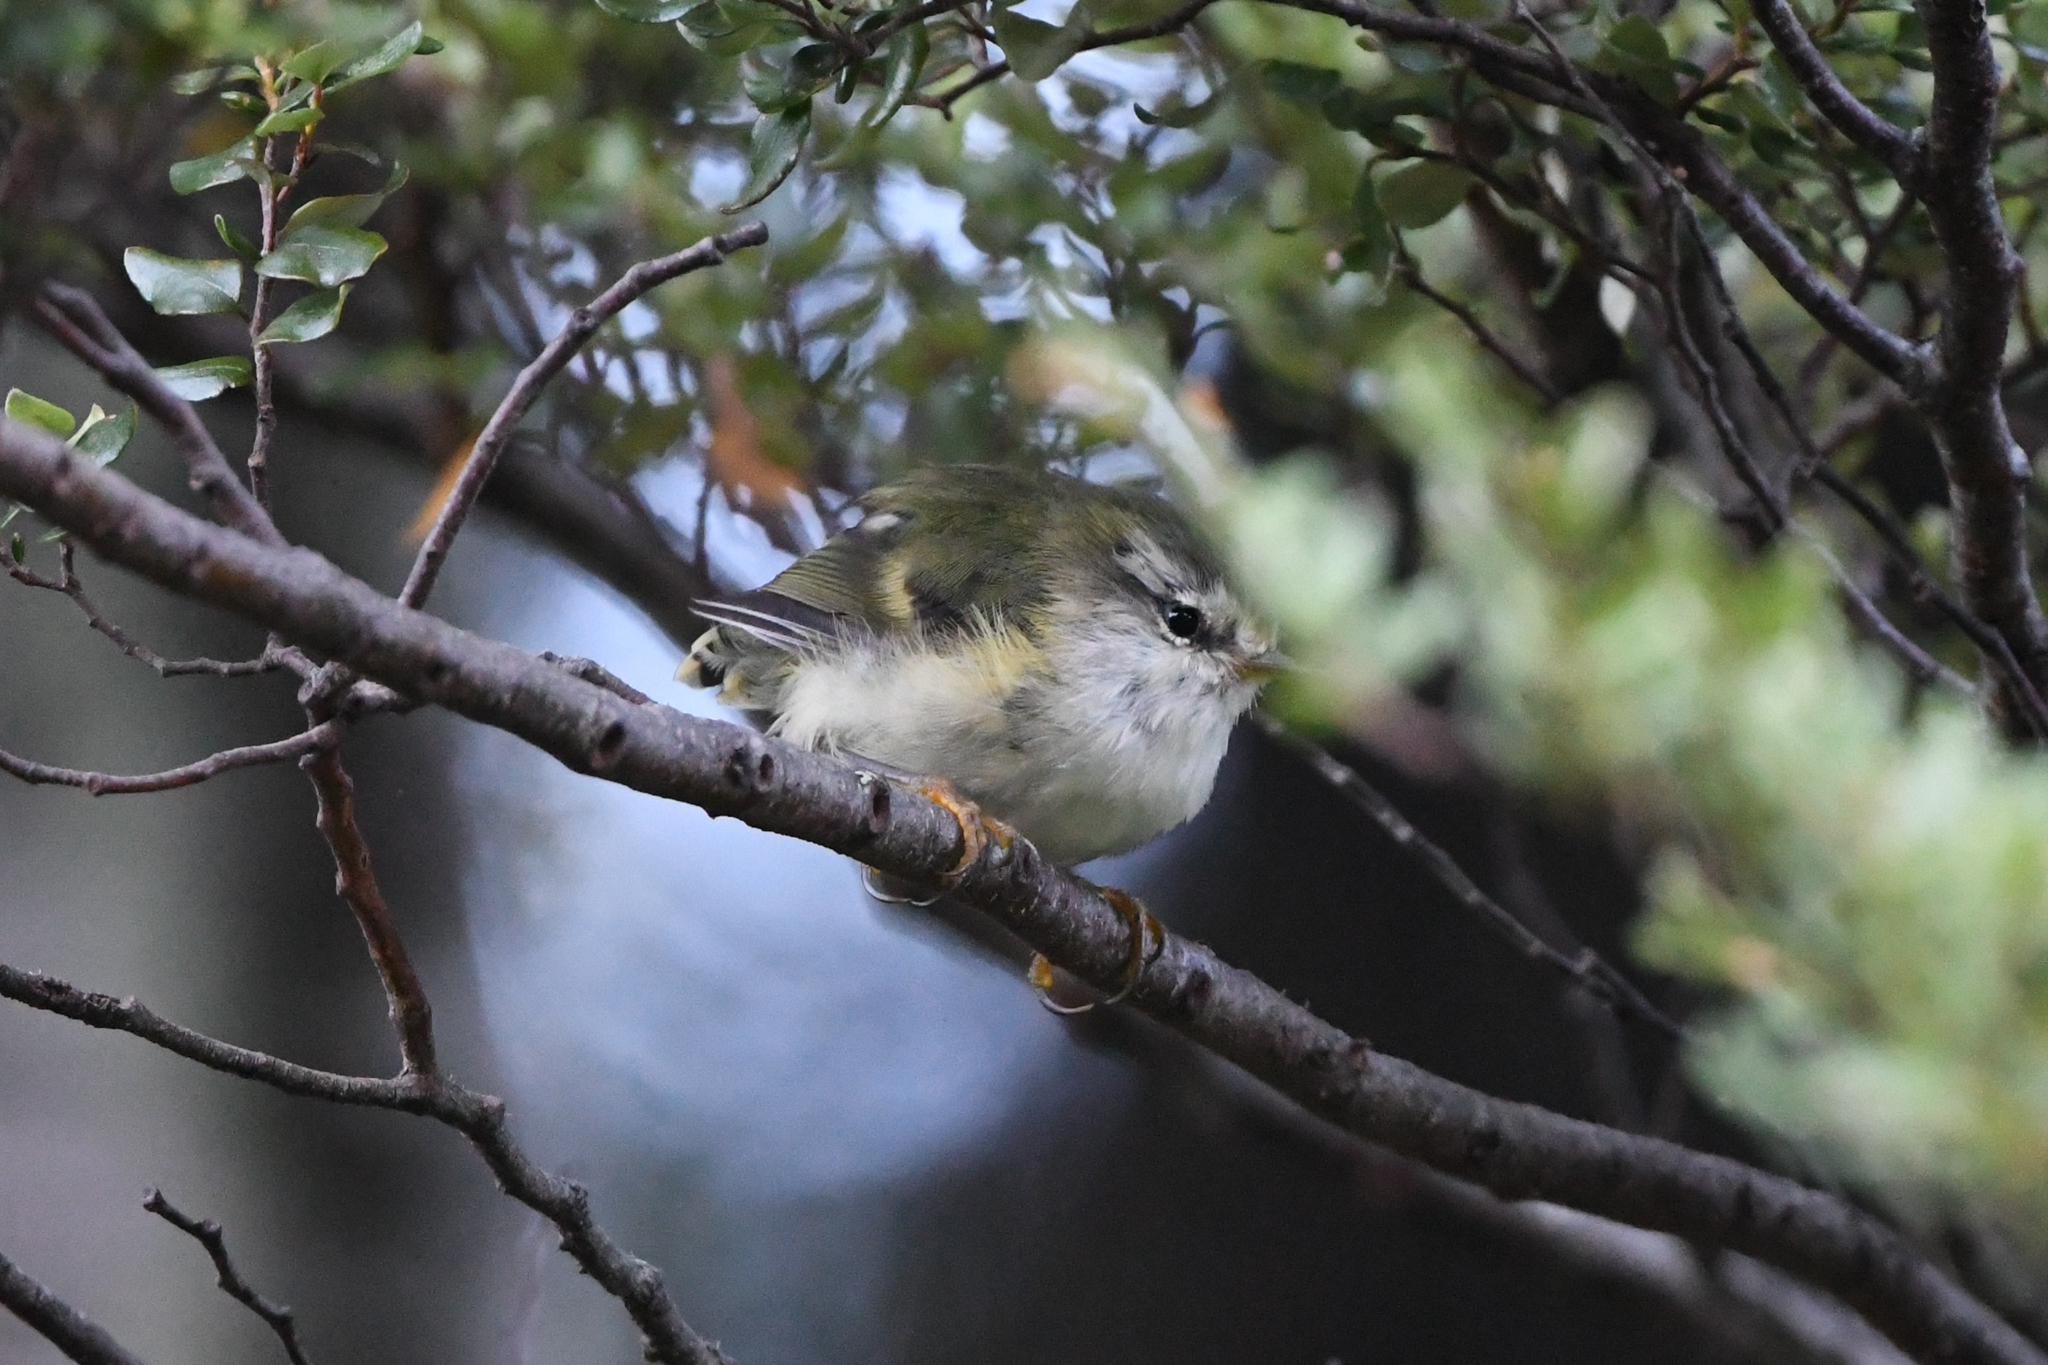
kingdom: Animalia
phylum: Chordata
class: Aves
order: Passeriformes
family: Acanthisittidae
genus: Acanthisitta
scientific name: Acanthisitta chloris
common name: Rifleman
